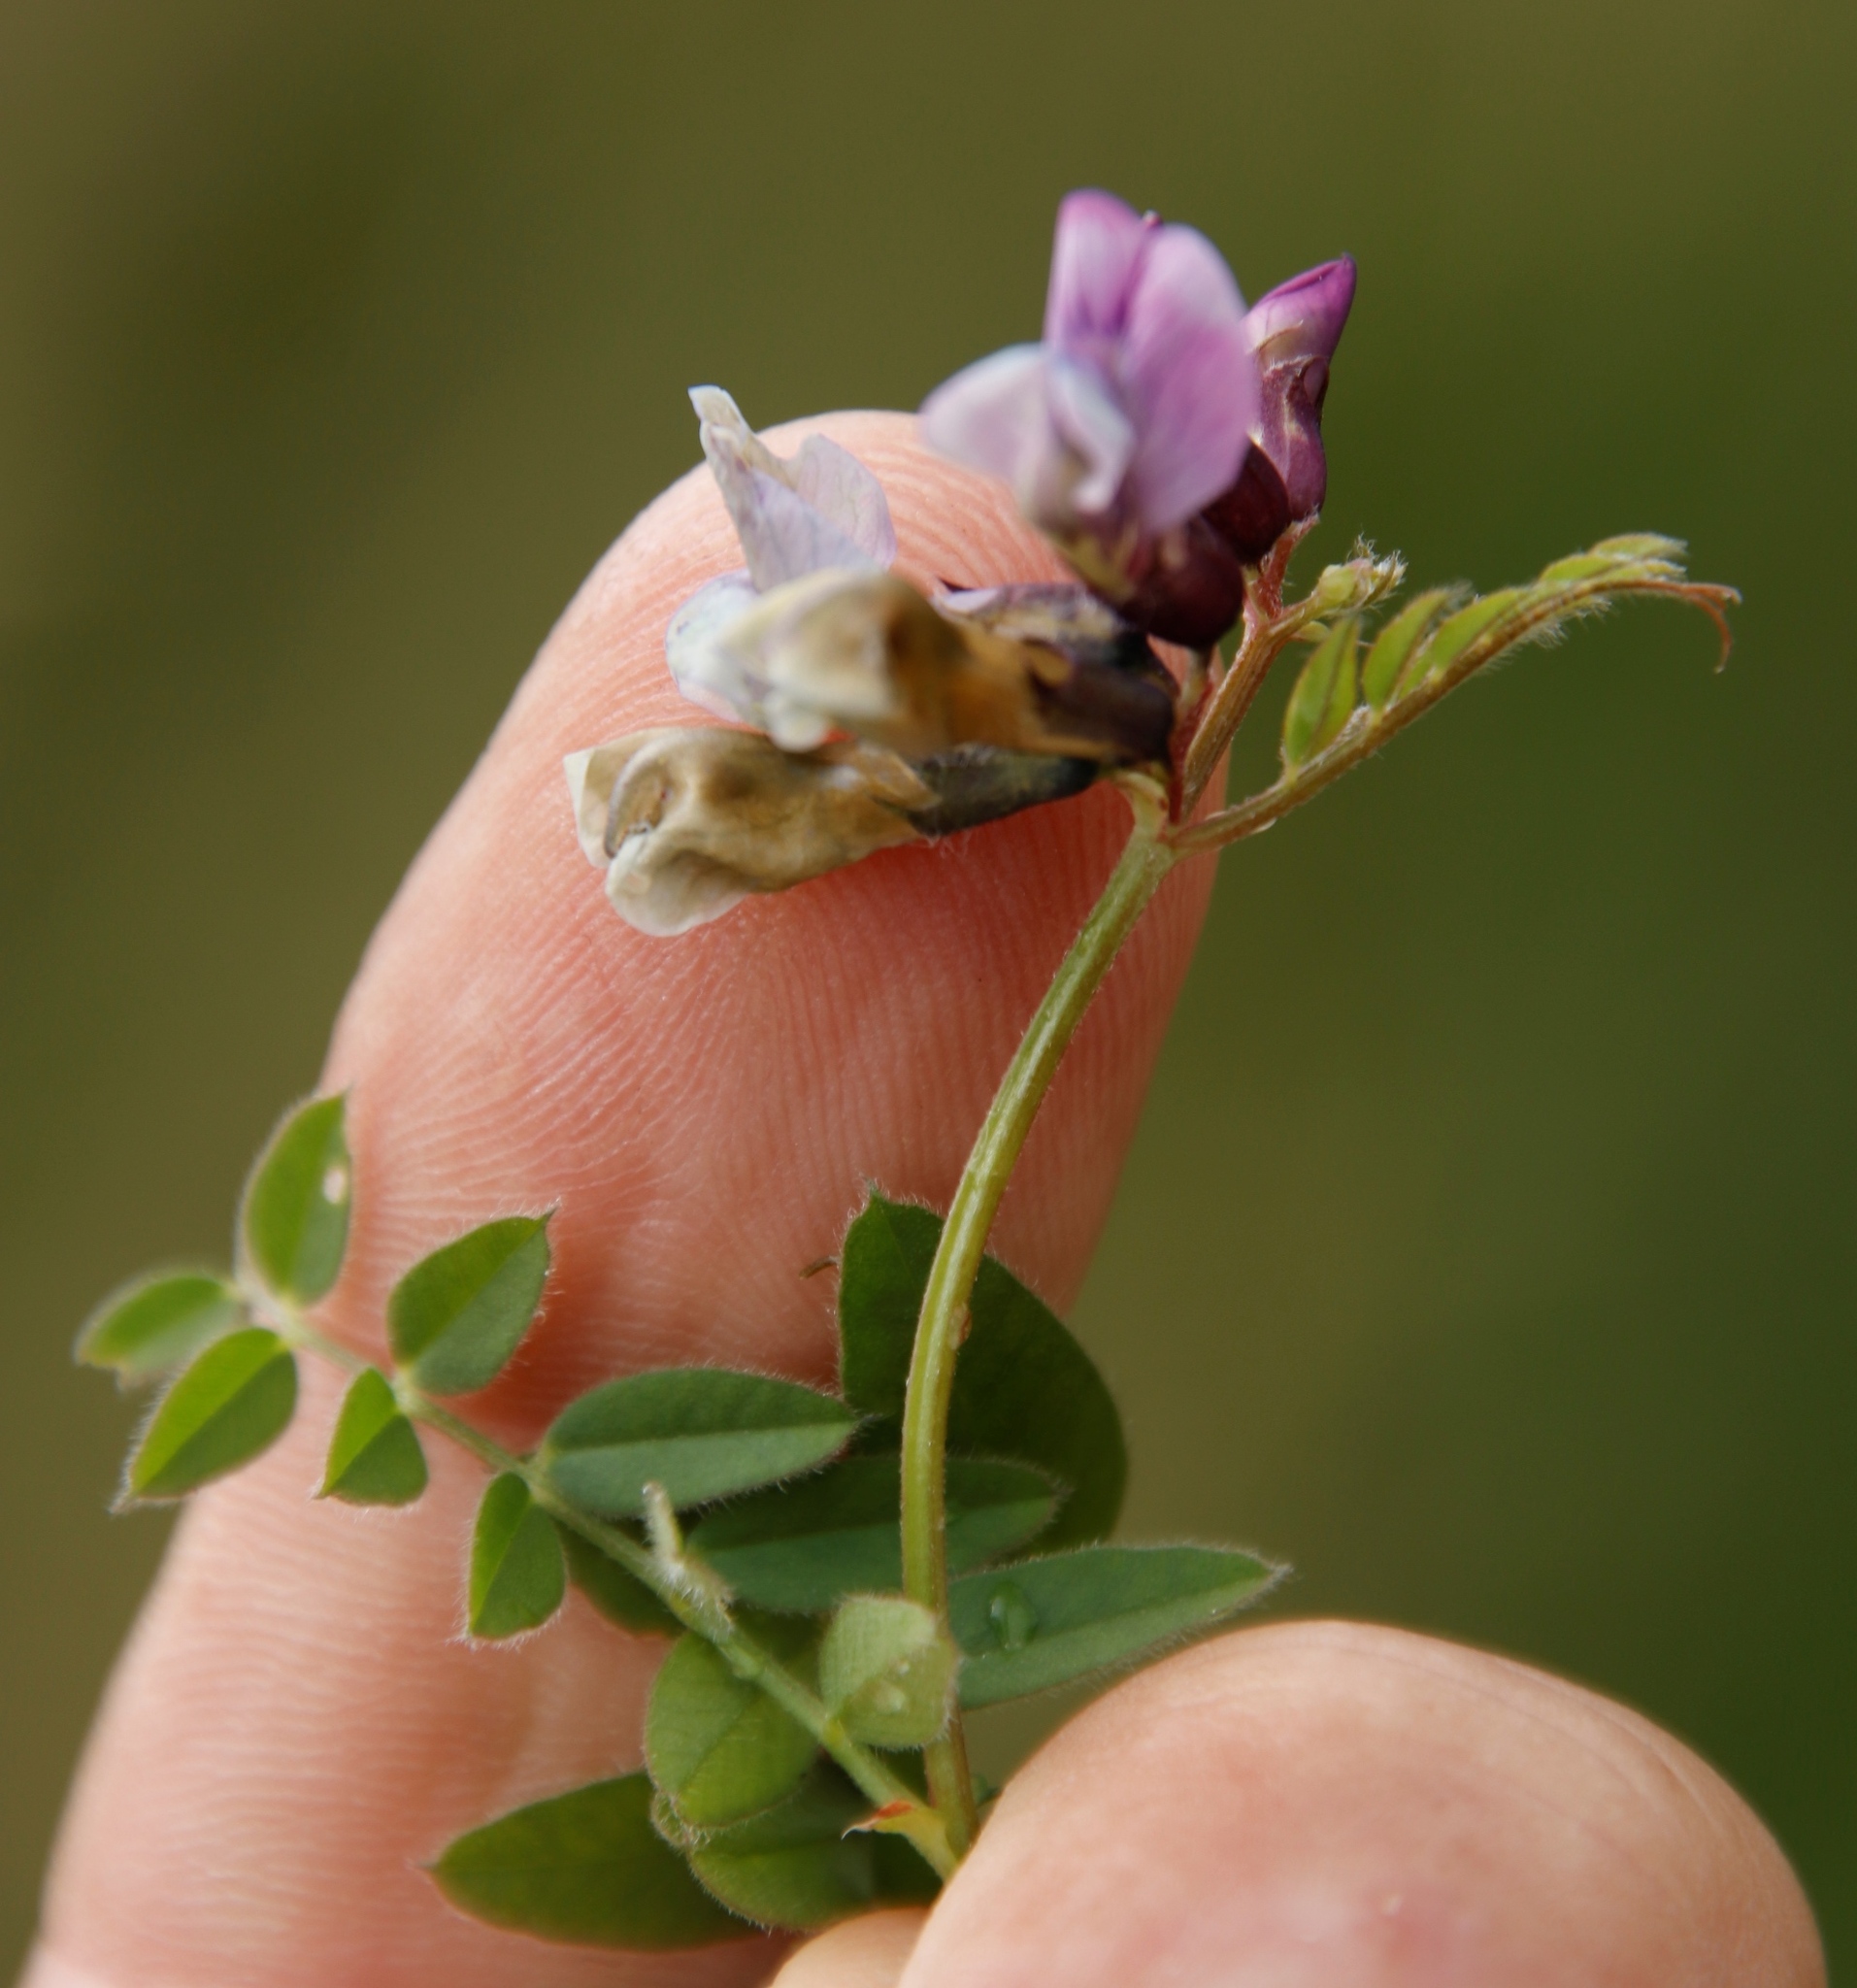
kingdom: Plantae
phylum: Tracheophyta
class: Magnoliopsida
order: Fabales
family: Fabaceae
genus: Vicia
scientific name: Vicia sepium
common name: Bush vetch
